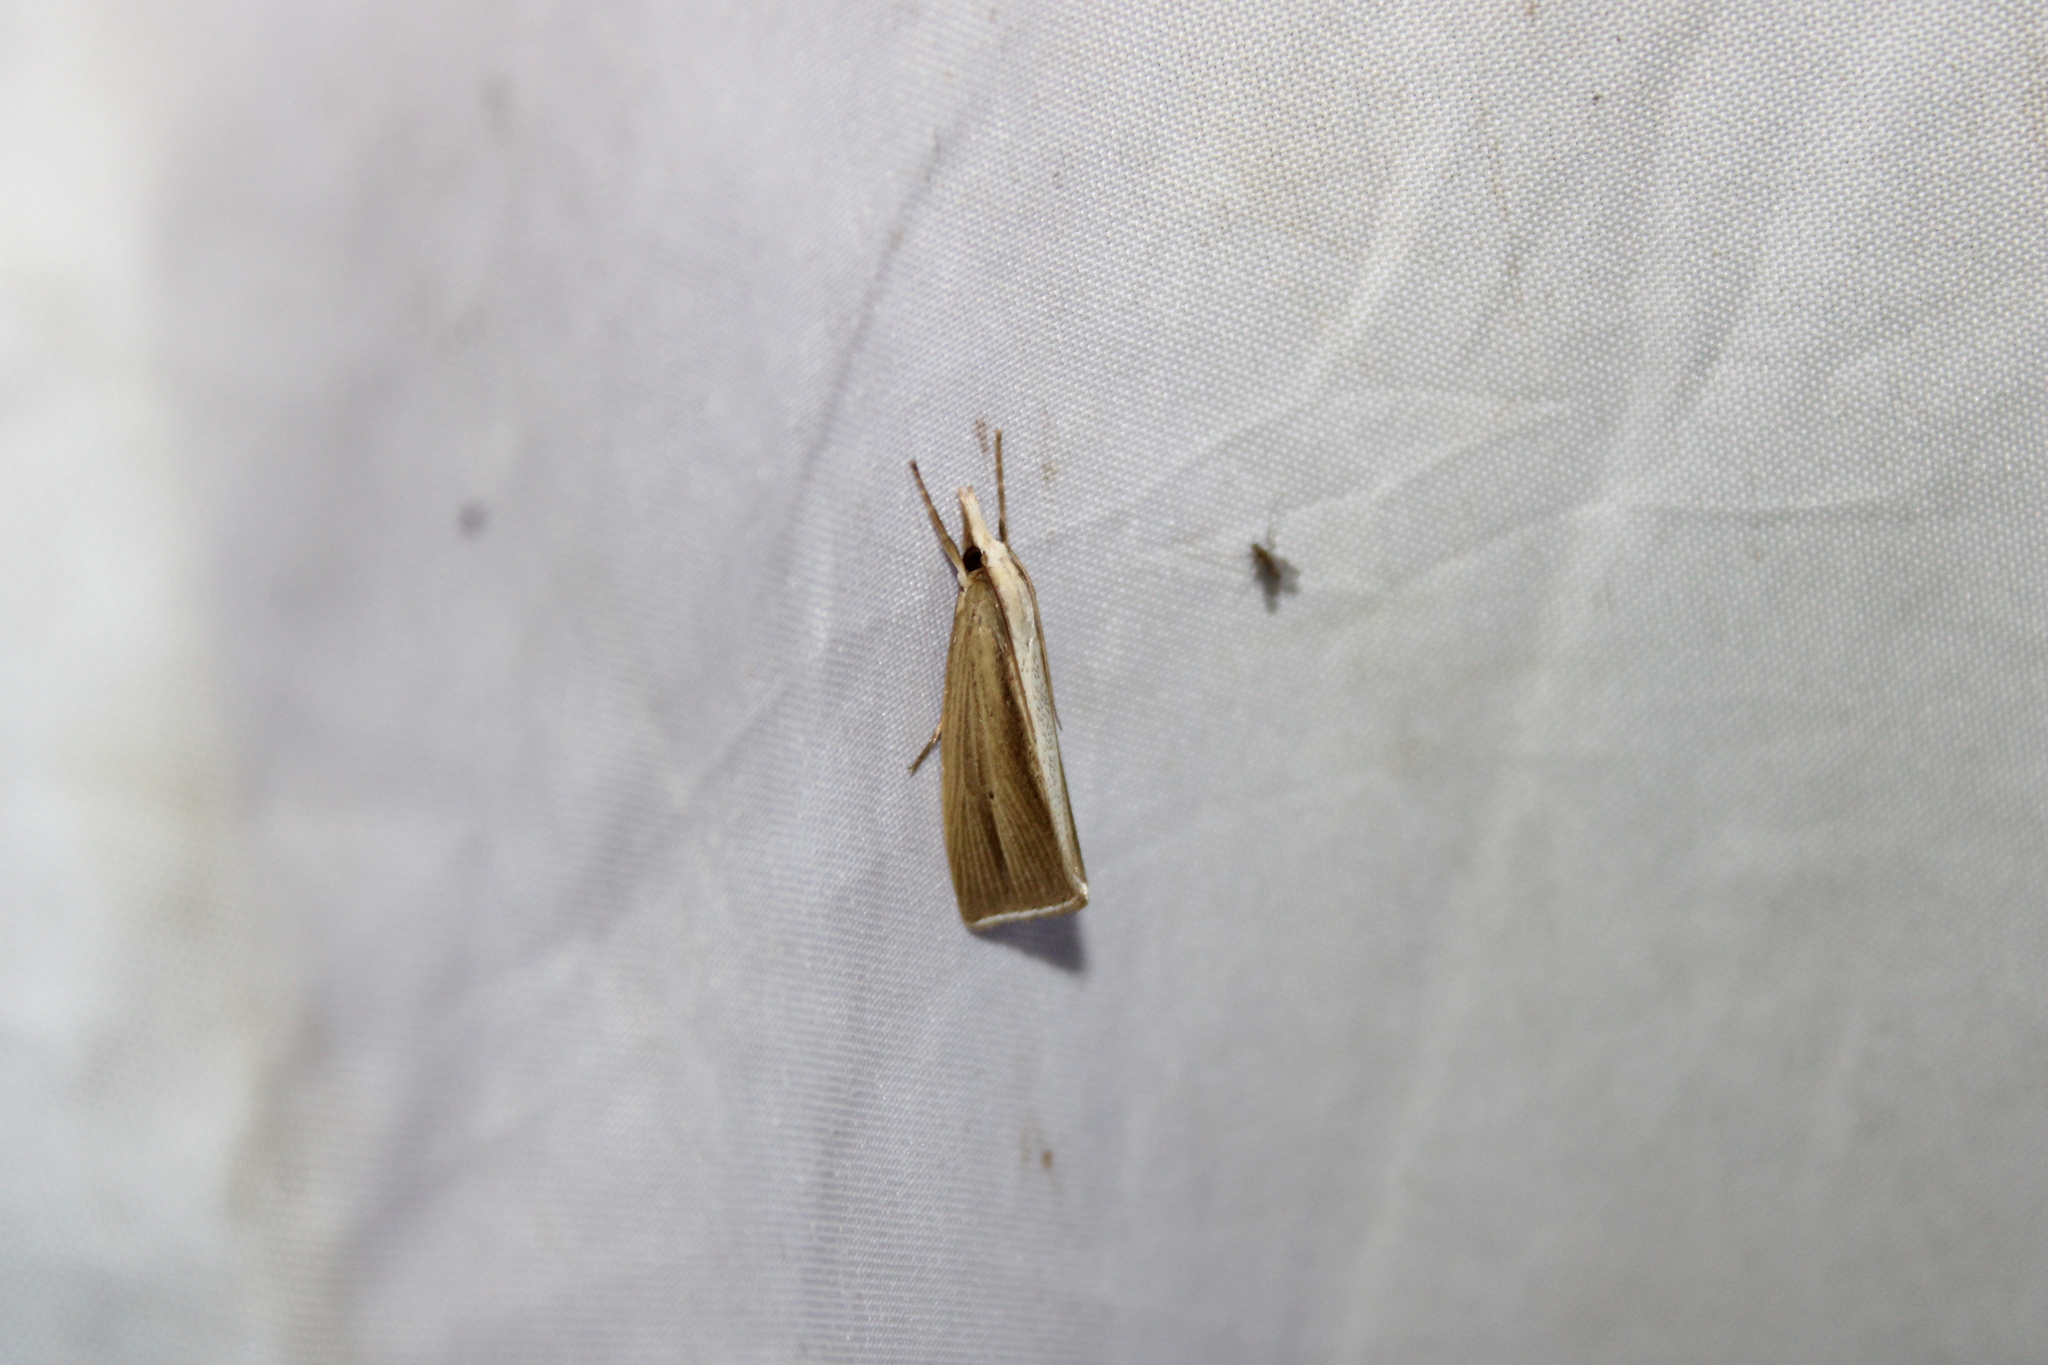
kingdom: Animalia
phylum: Arthropoda
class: Insecta
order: Lepidoptera
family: Crambidae
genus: Epina
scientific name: Epina alleni
